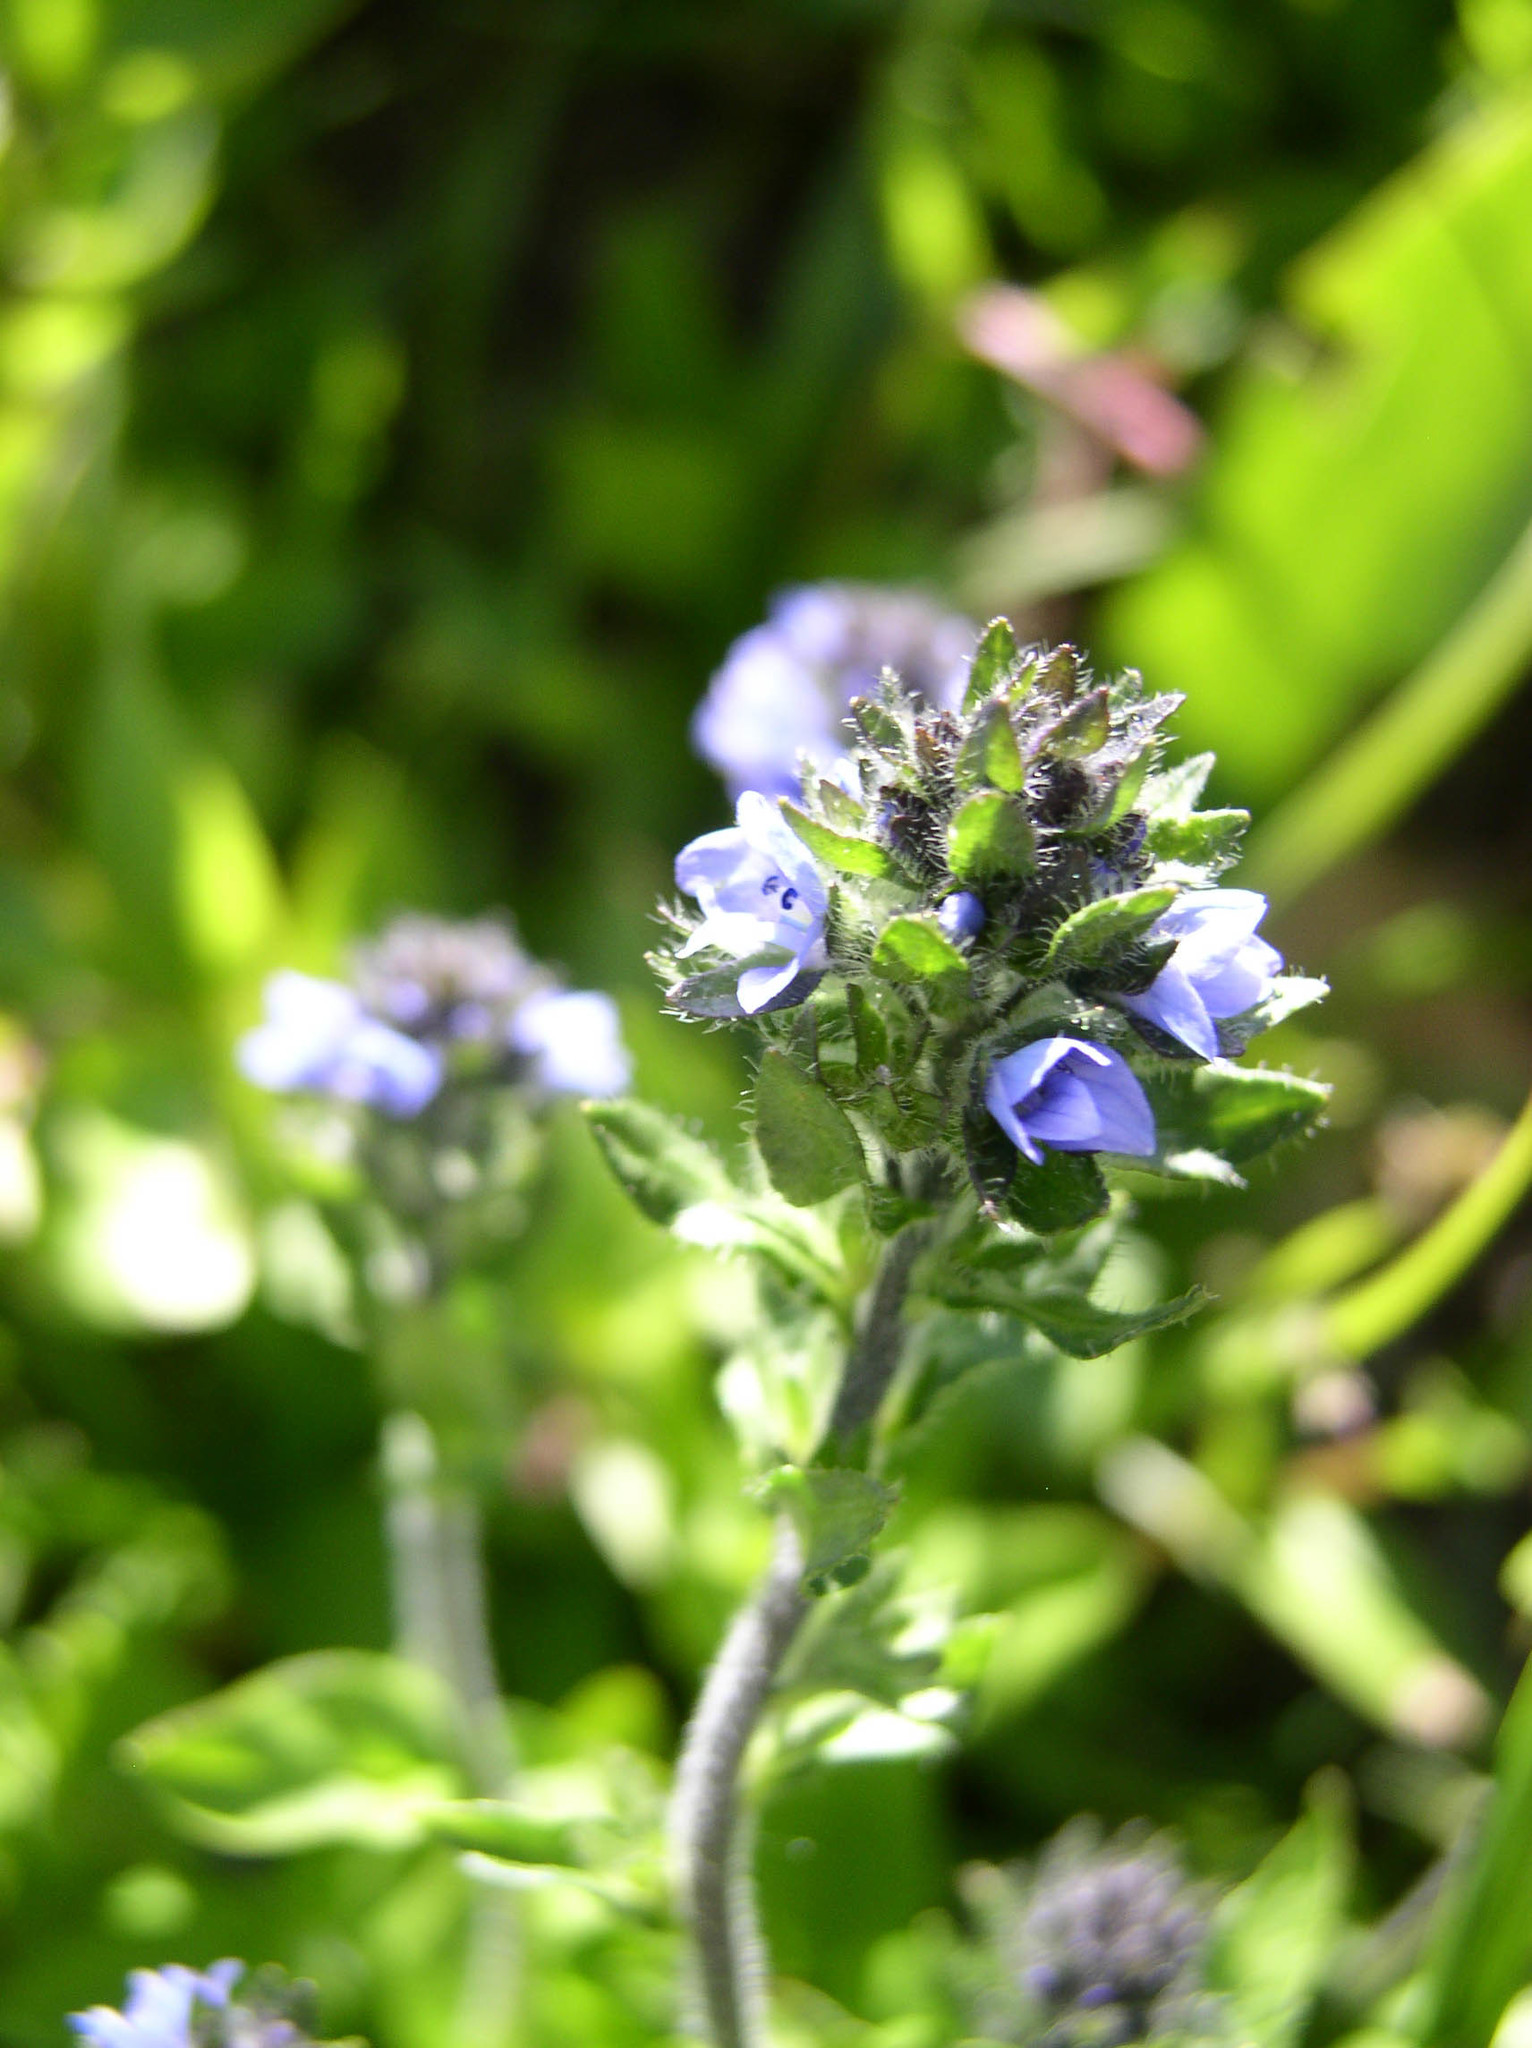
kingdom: Plantae
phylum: Tracheophyta
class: Magnoliopsida
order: Lamiales
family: Plantaginaceae
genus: Veronica
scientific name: Veronica wormskjoldii
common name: American alpine speedwell
